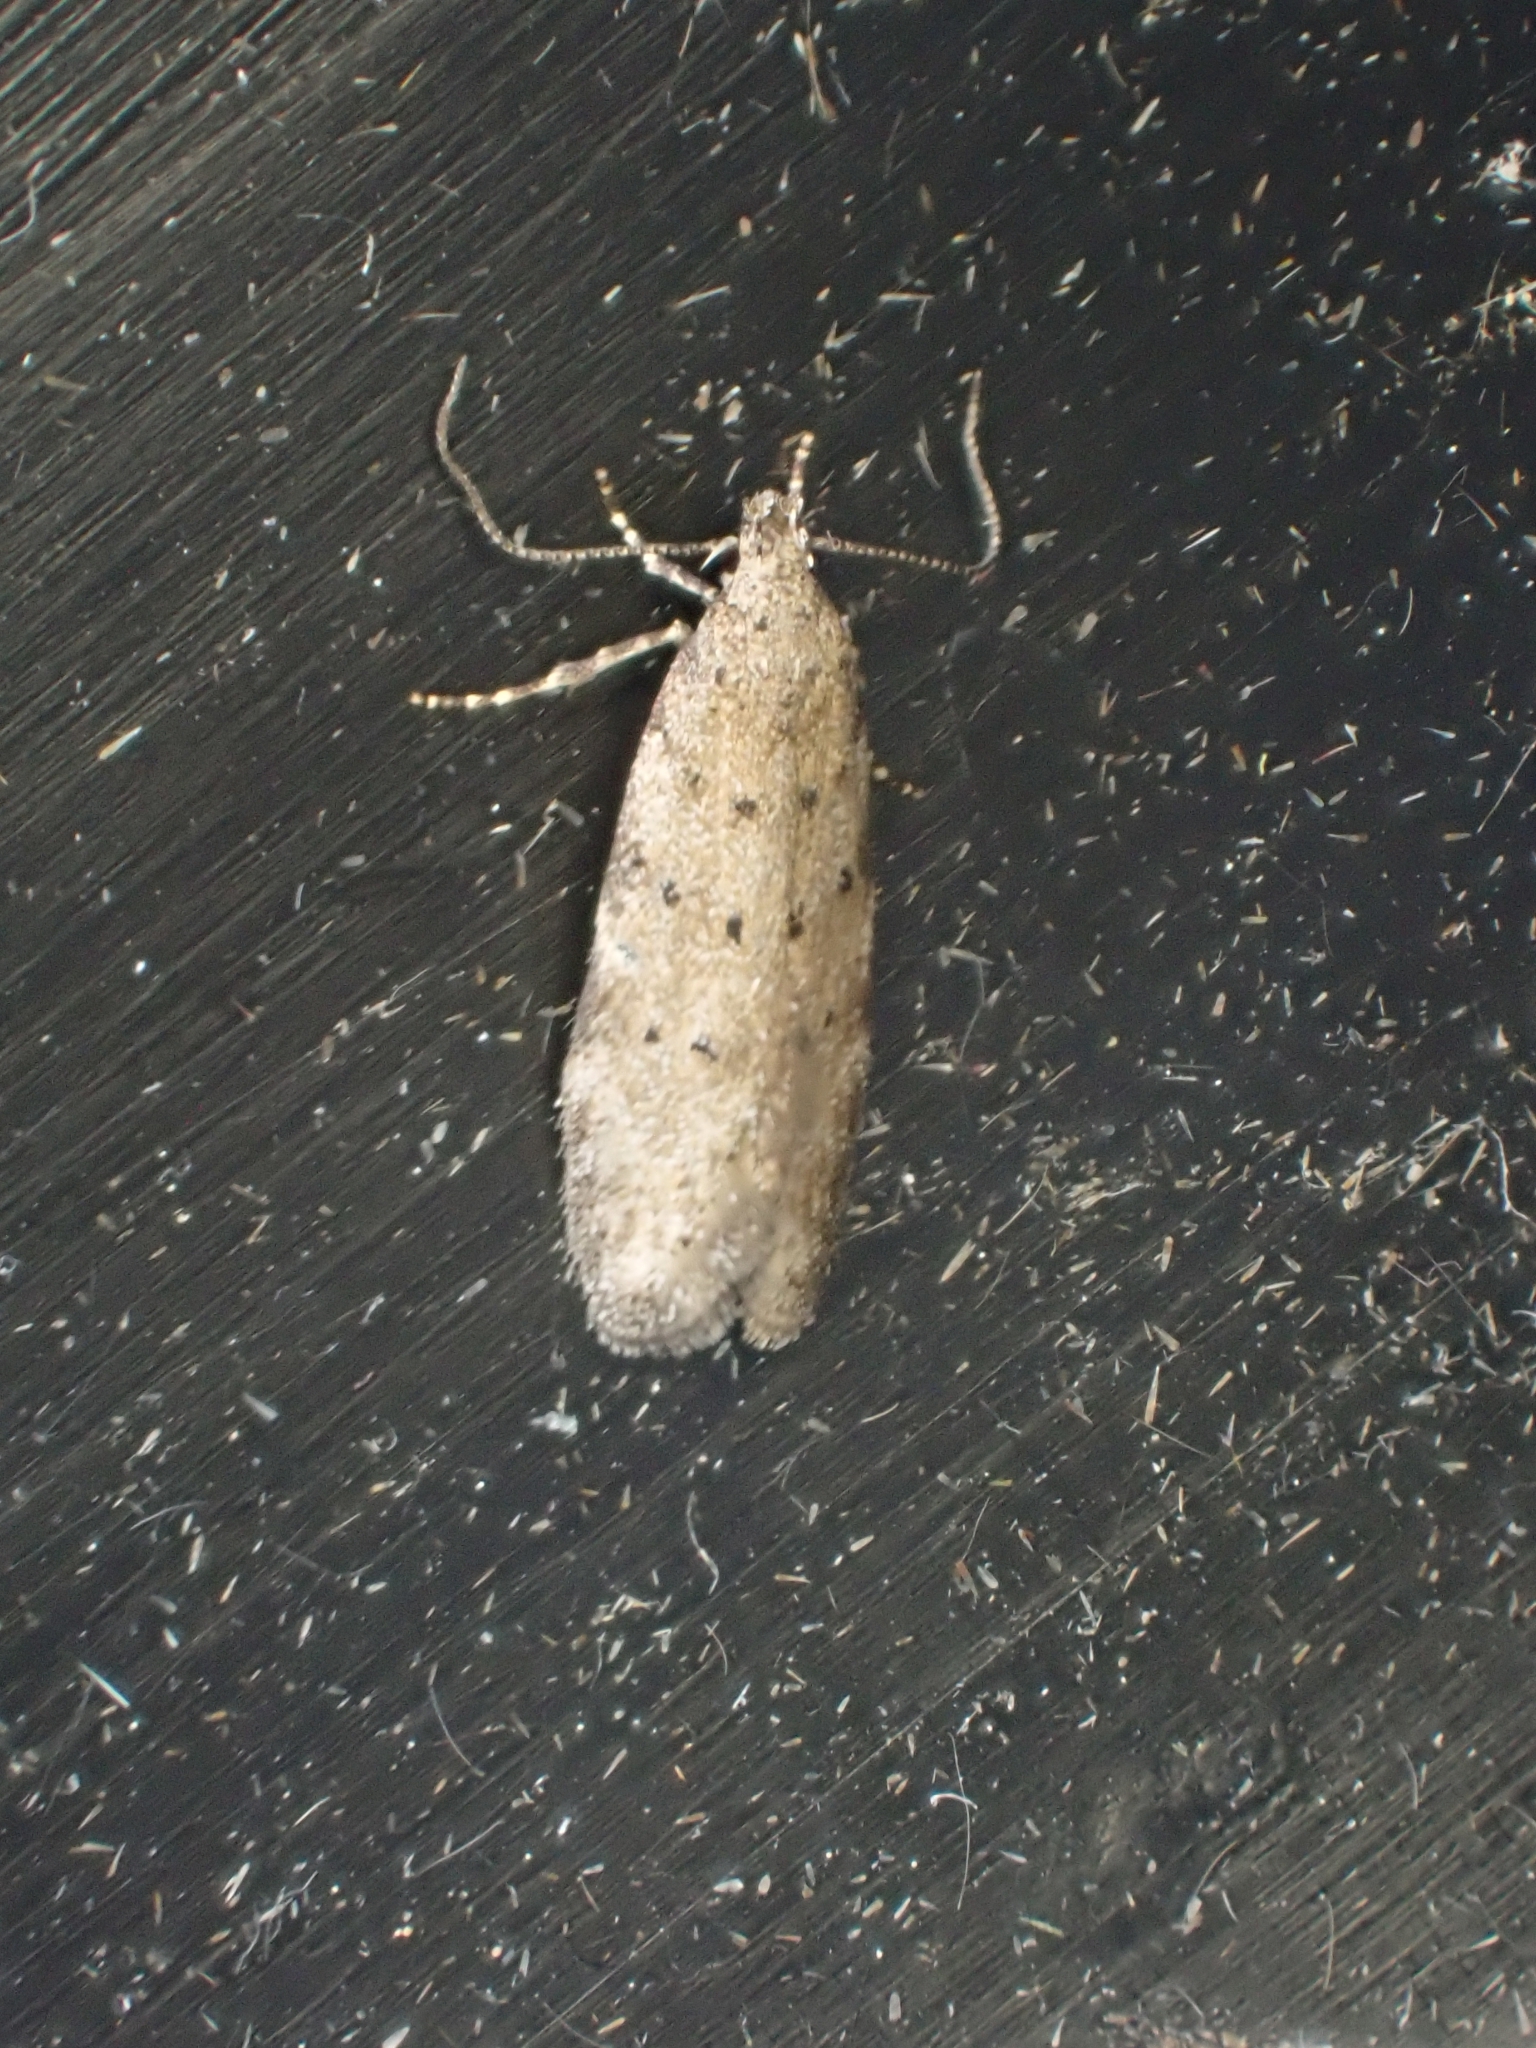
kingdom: Animalia
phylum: Arthropoda
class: Insecta
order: Lepidoptera
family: Gelechiidae
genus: Pseudotelphusa
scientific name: Pseudotelphusa paripunctella
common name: Tawny groundling
